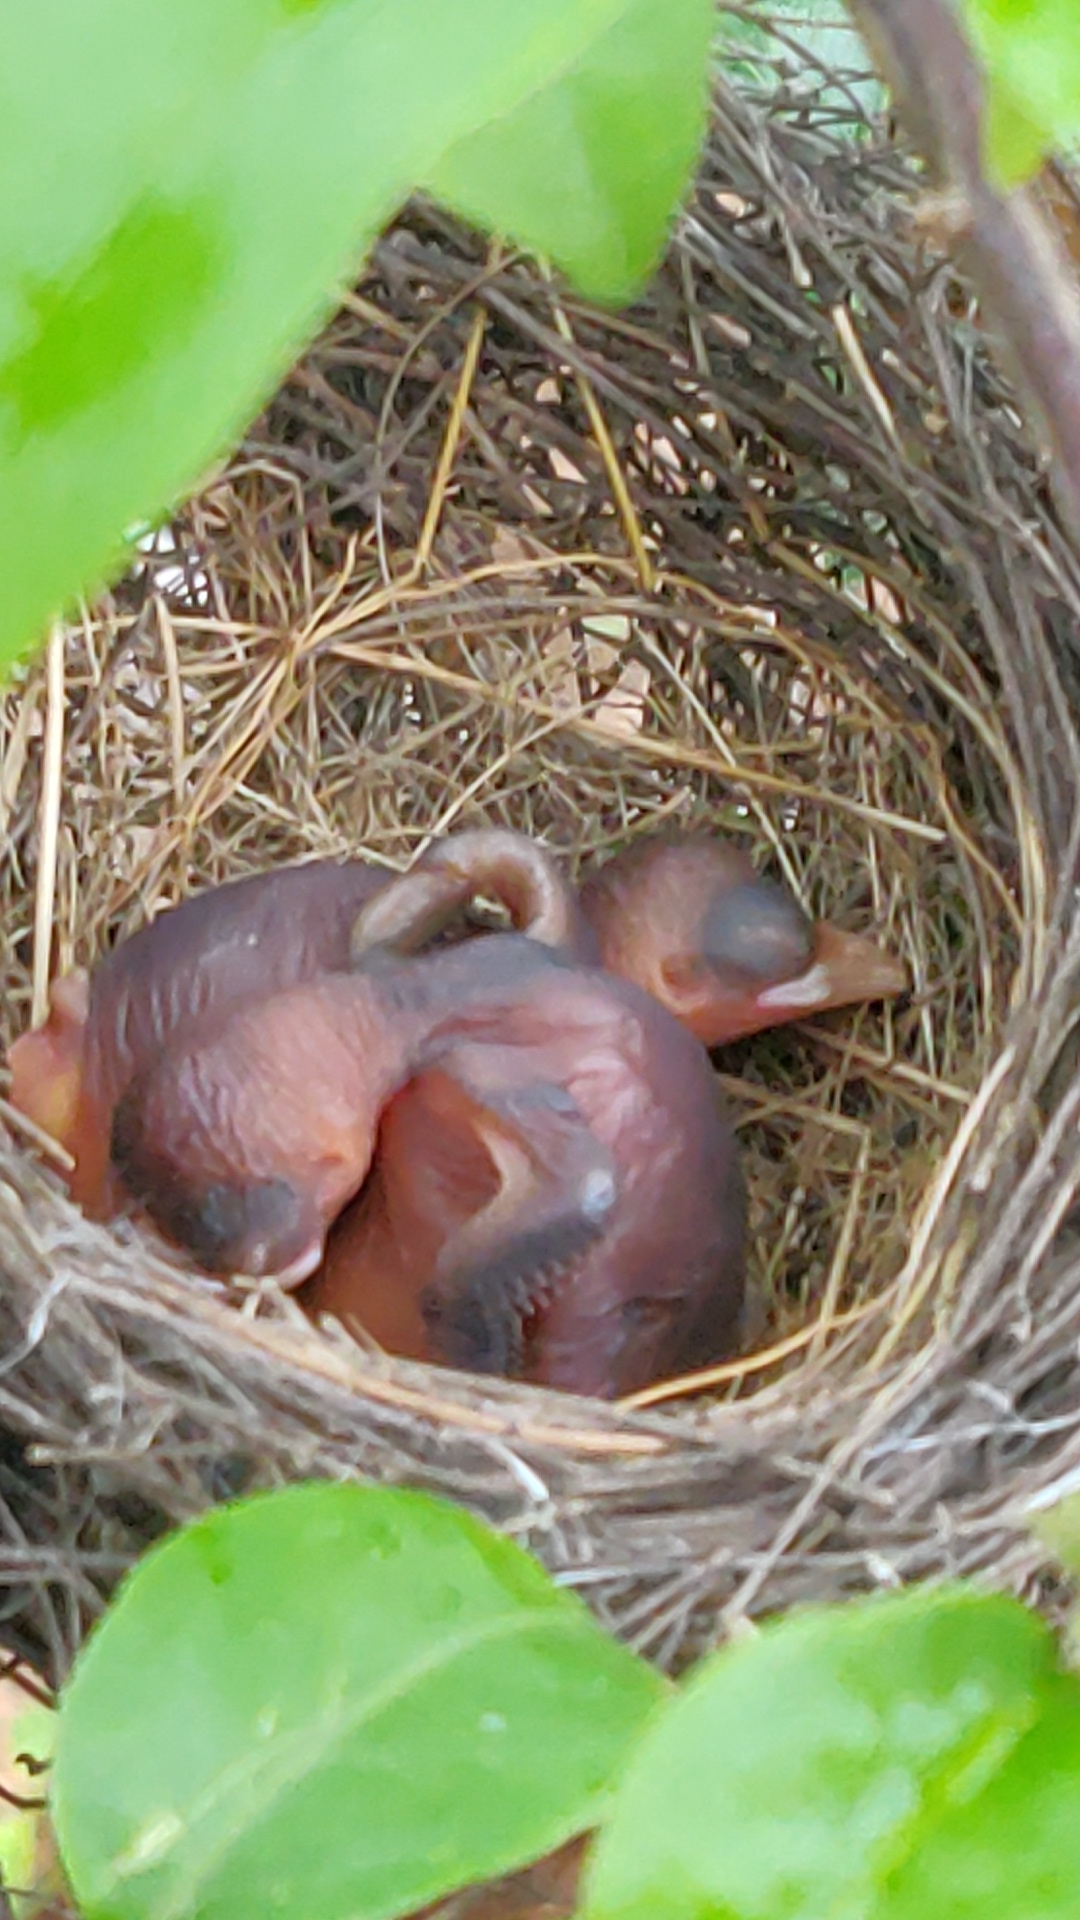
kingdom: Animalia
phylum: Chordata
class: Aves
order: Passeriformes
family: Pycnonotidae
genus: Pycnonotus
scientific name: Pycnonotus cafer
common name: Red-vented bulbul
